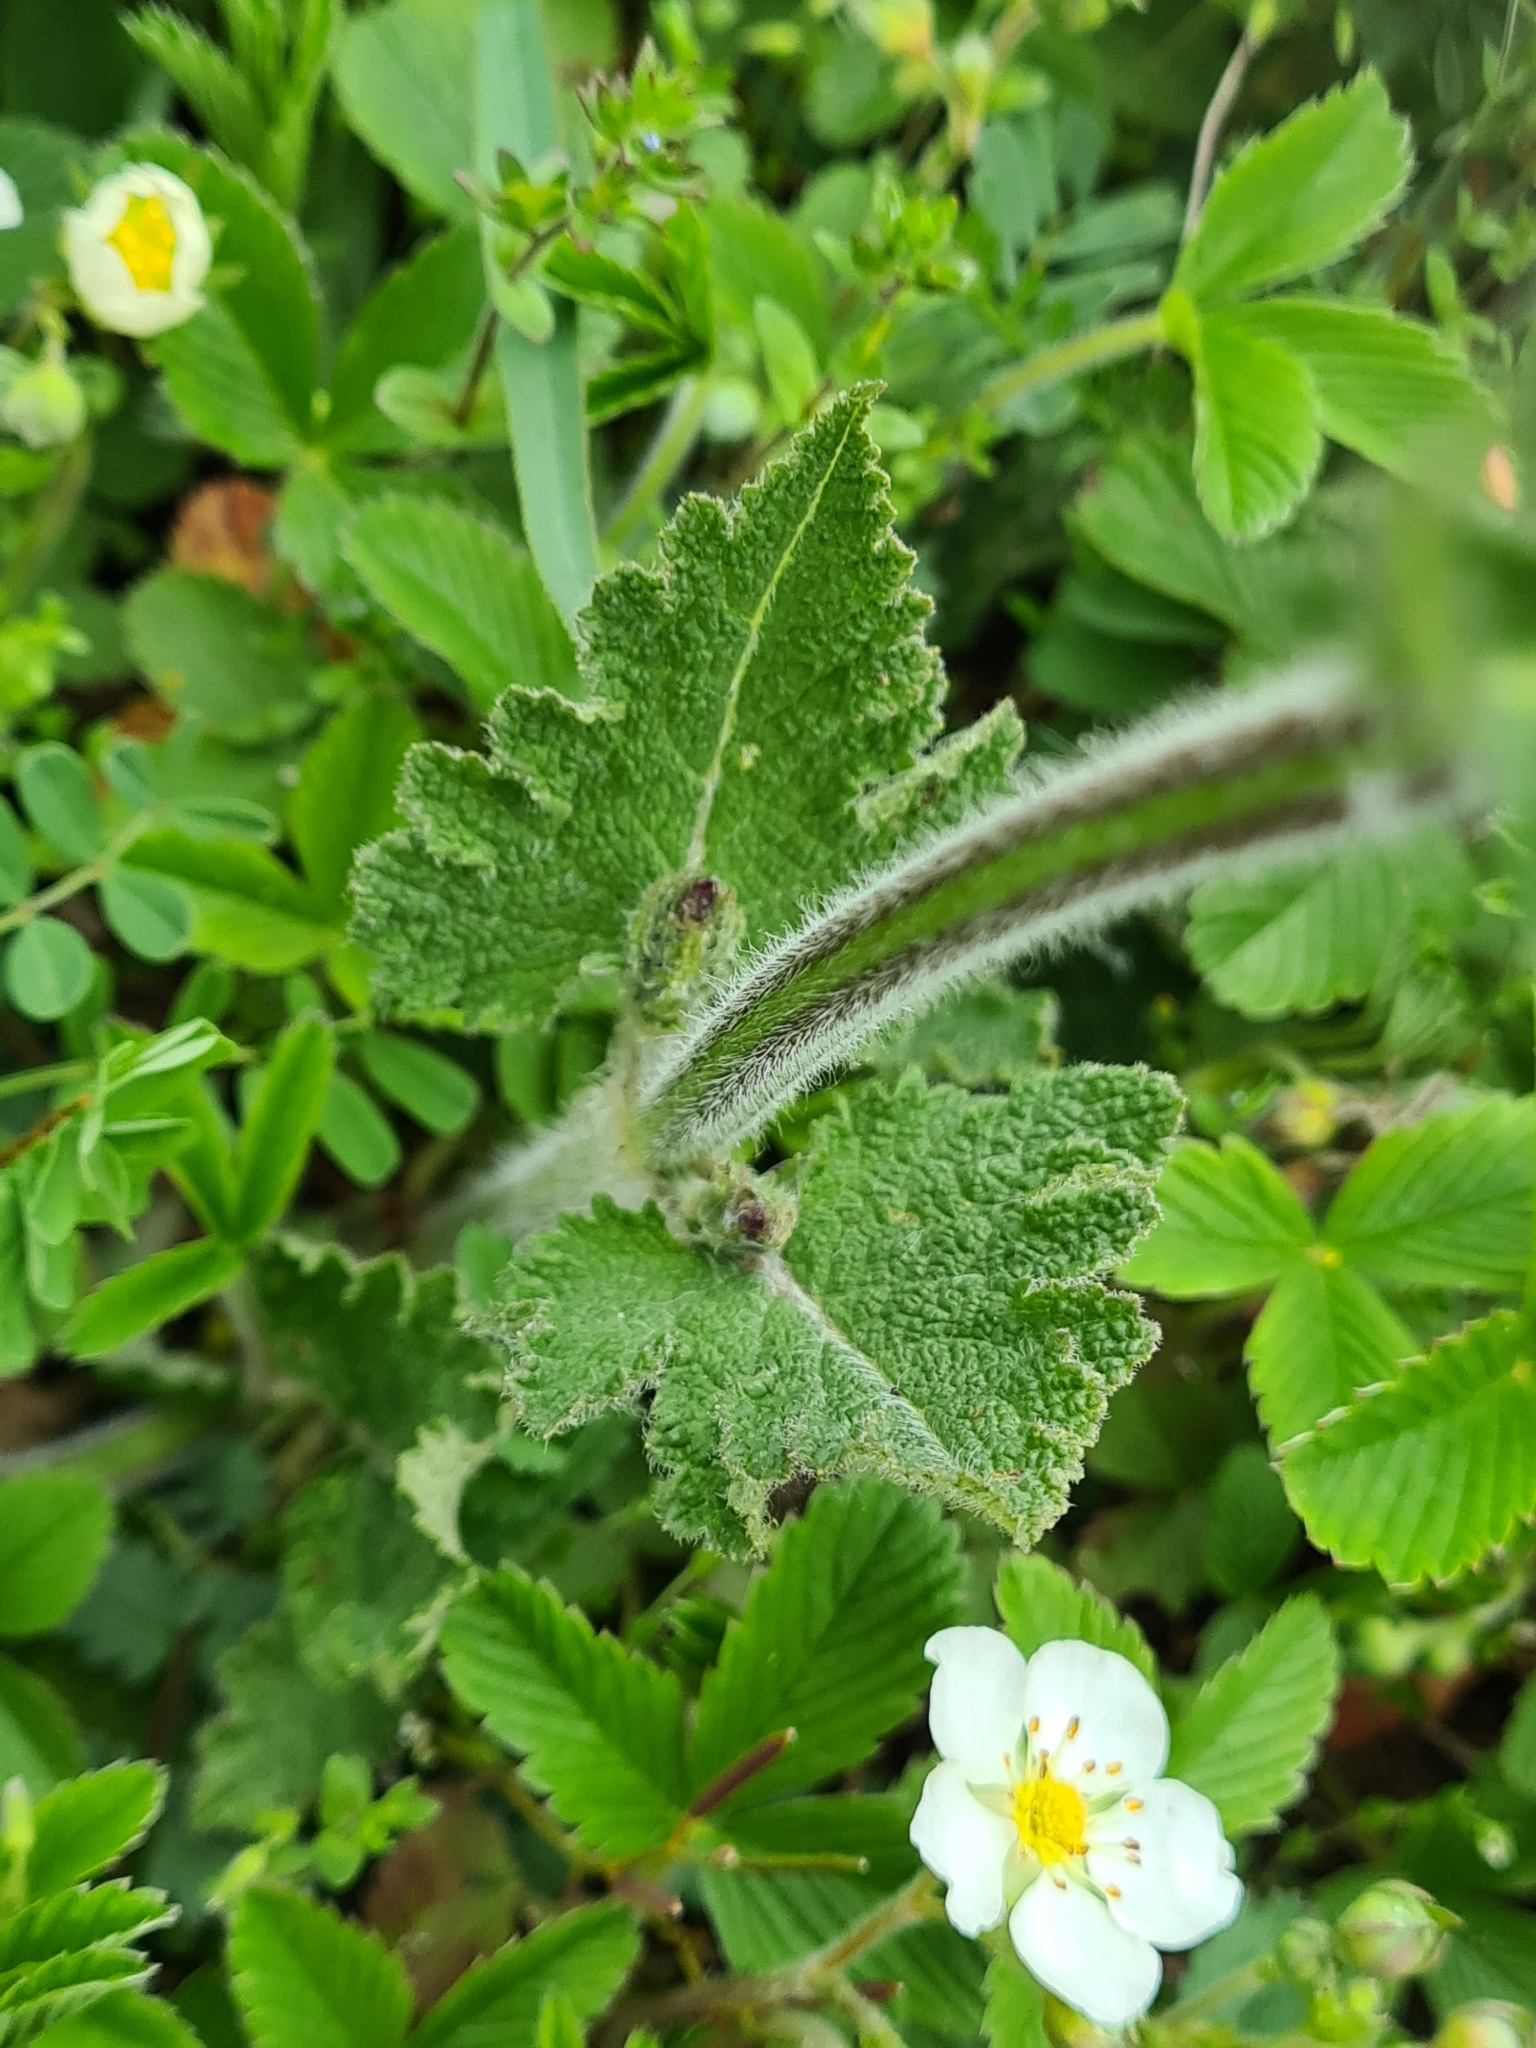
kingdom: Plantae
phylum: Tracheophyta
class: Magnoliopsida
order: Lamiales
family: Lamiaceae
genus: Salvia
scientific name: Salvia pratensis
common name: Meadow sage
